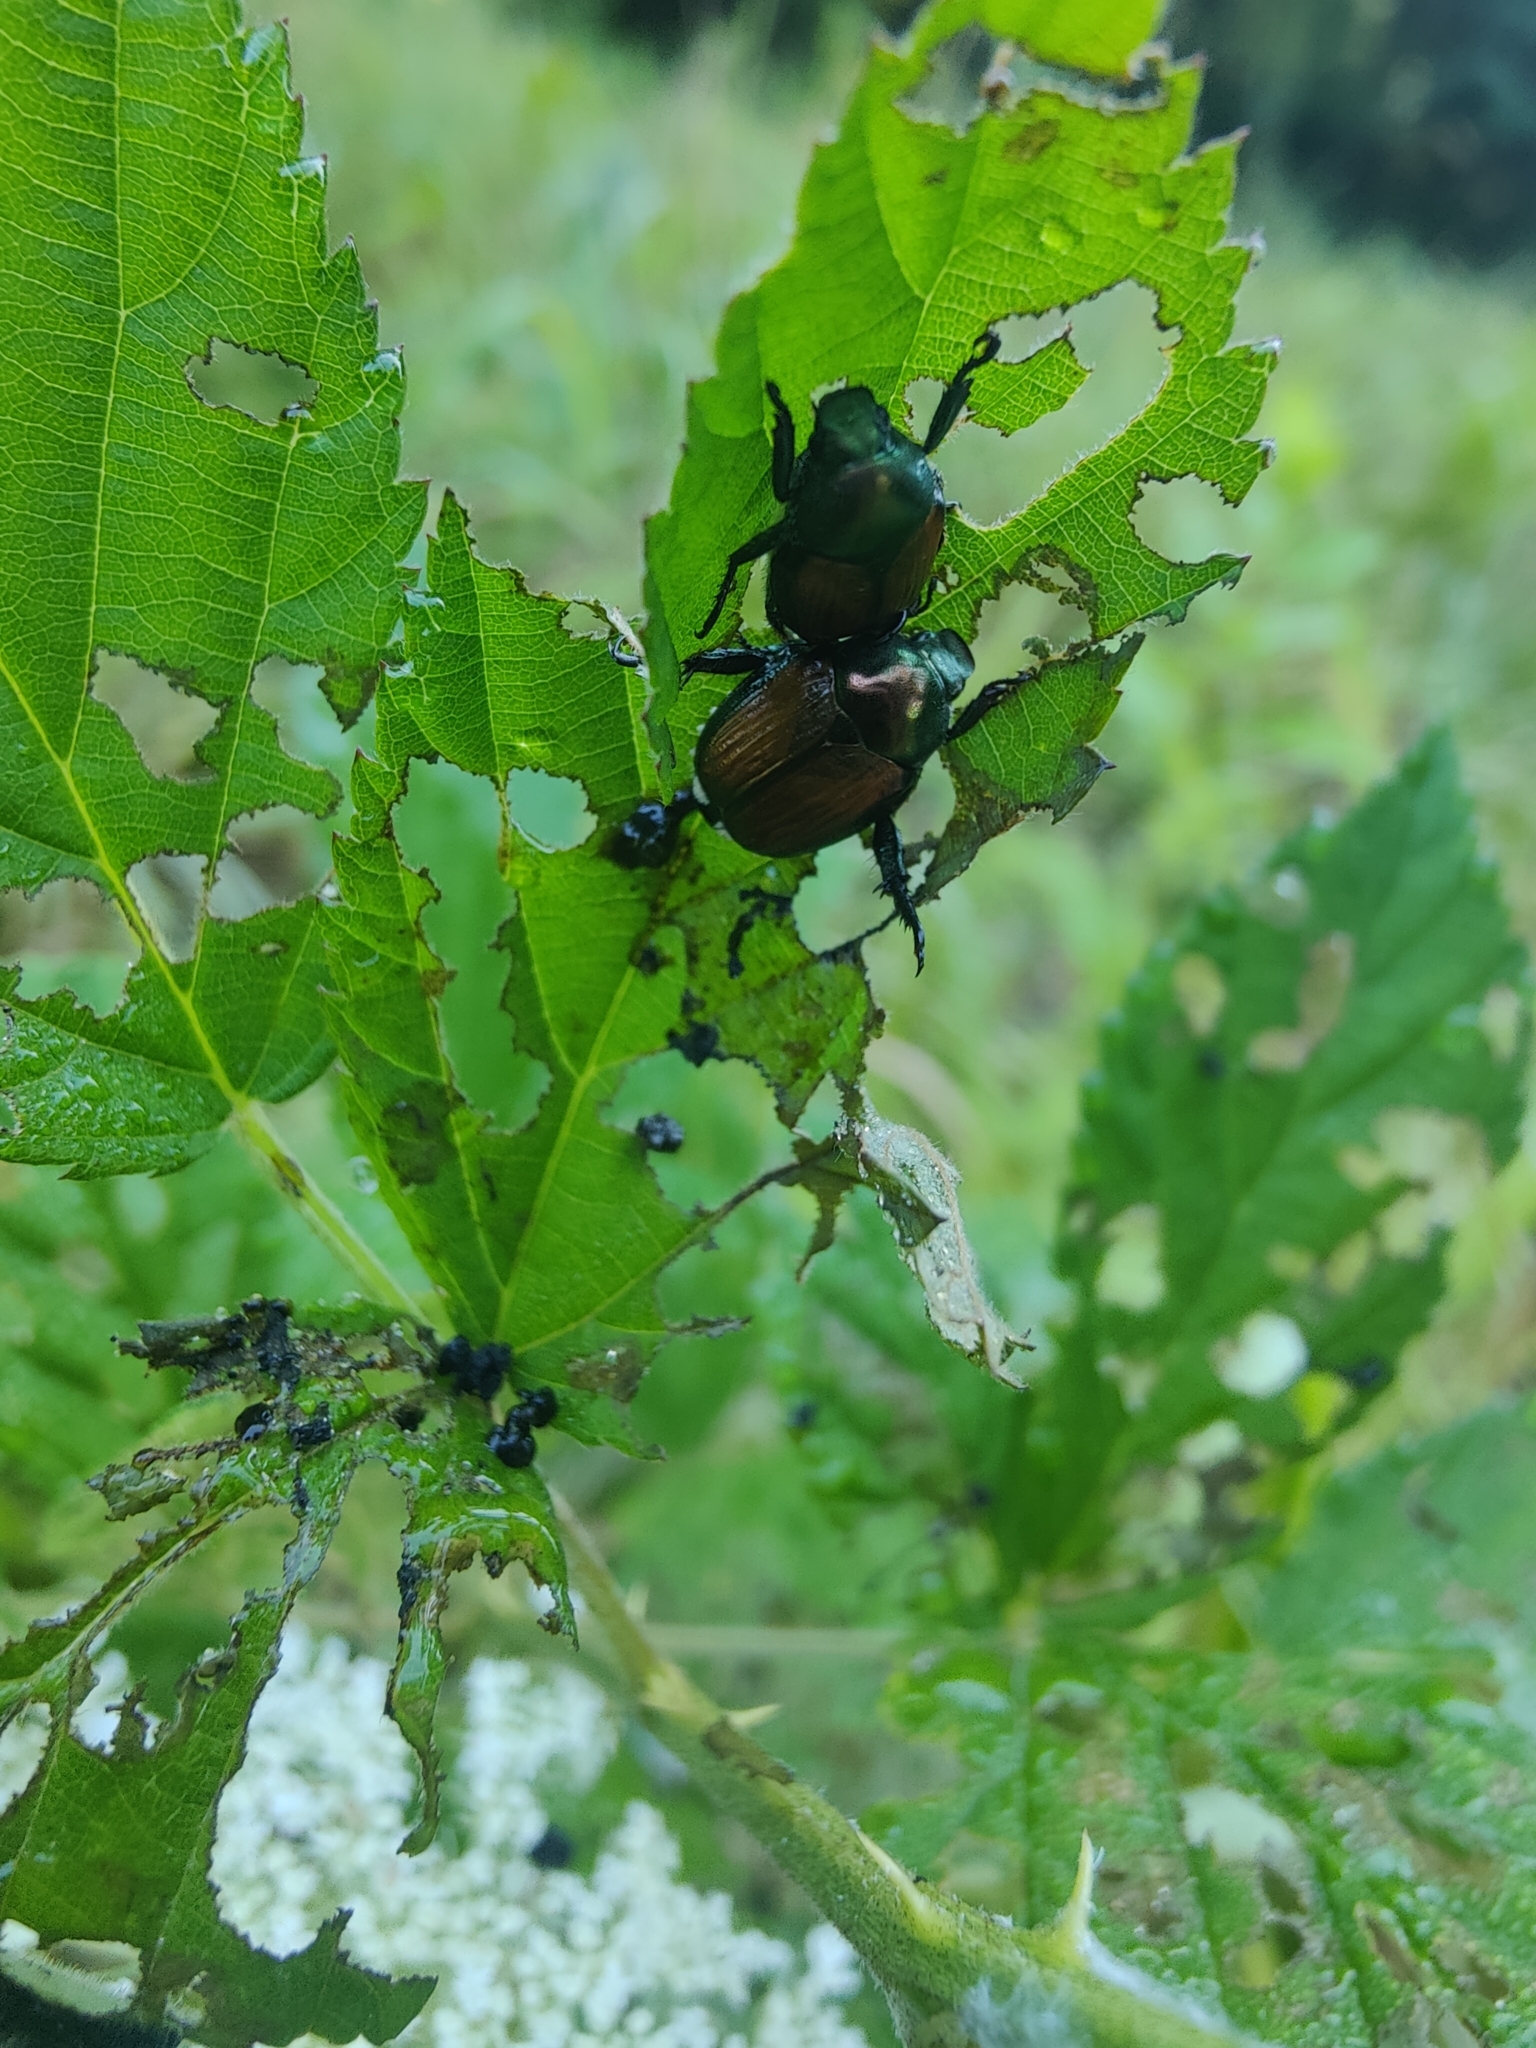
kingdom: Animalia
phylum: Arthropoda
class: Insecta
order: Coleoptera
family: Scarabaeidae
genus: Popillia
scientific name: Popillia japonica
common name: Japanese beetle
